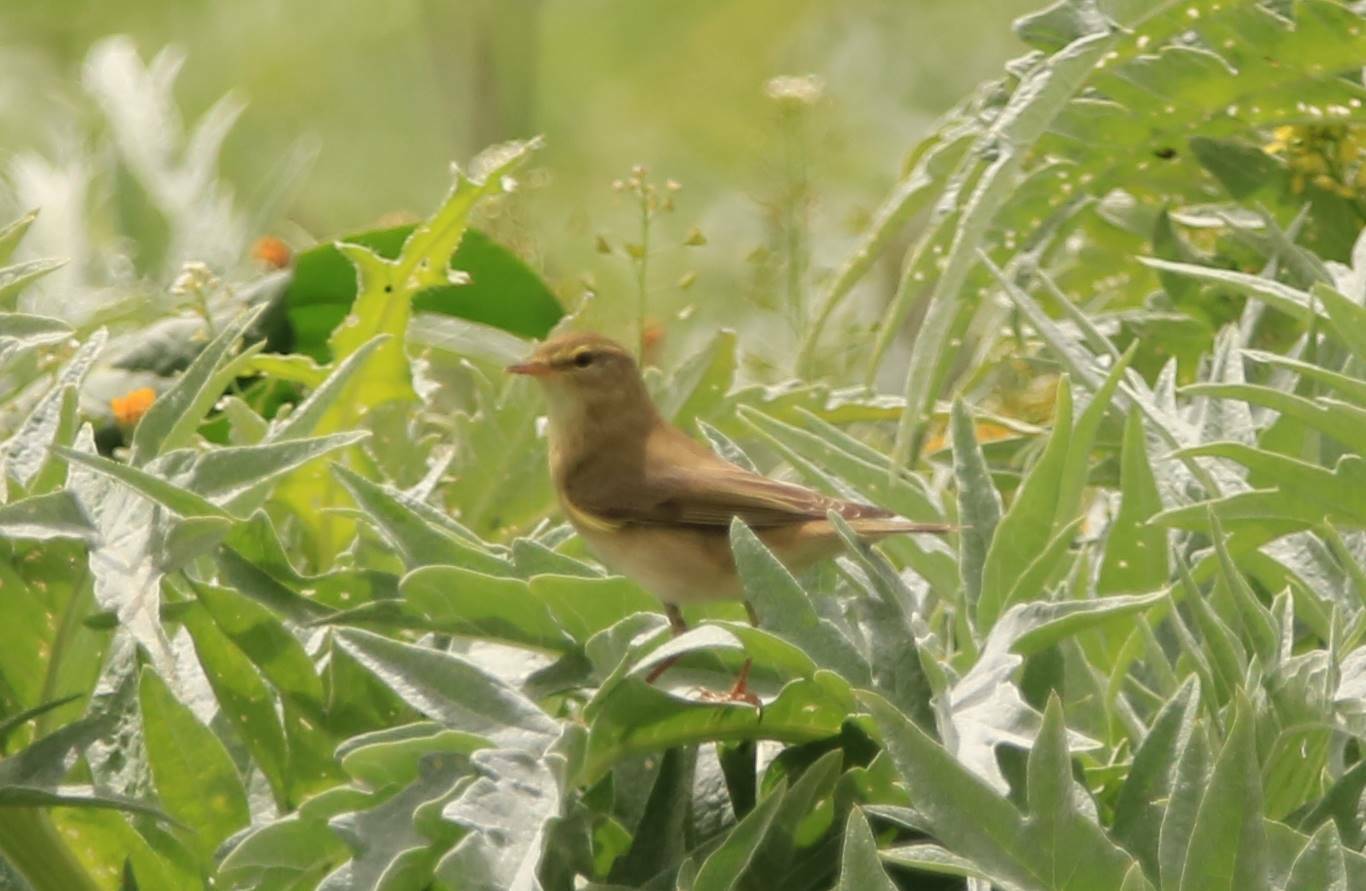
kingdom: Animalia
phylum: Chordata
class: Aves
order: Passeriformes
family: Phylloscopidae
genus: Phylloscopus
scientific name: Phylloscopus trochilus
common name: Willow warbler
